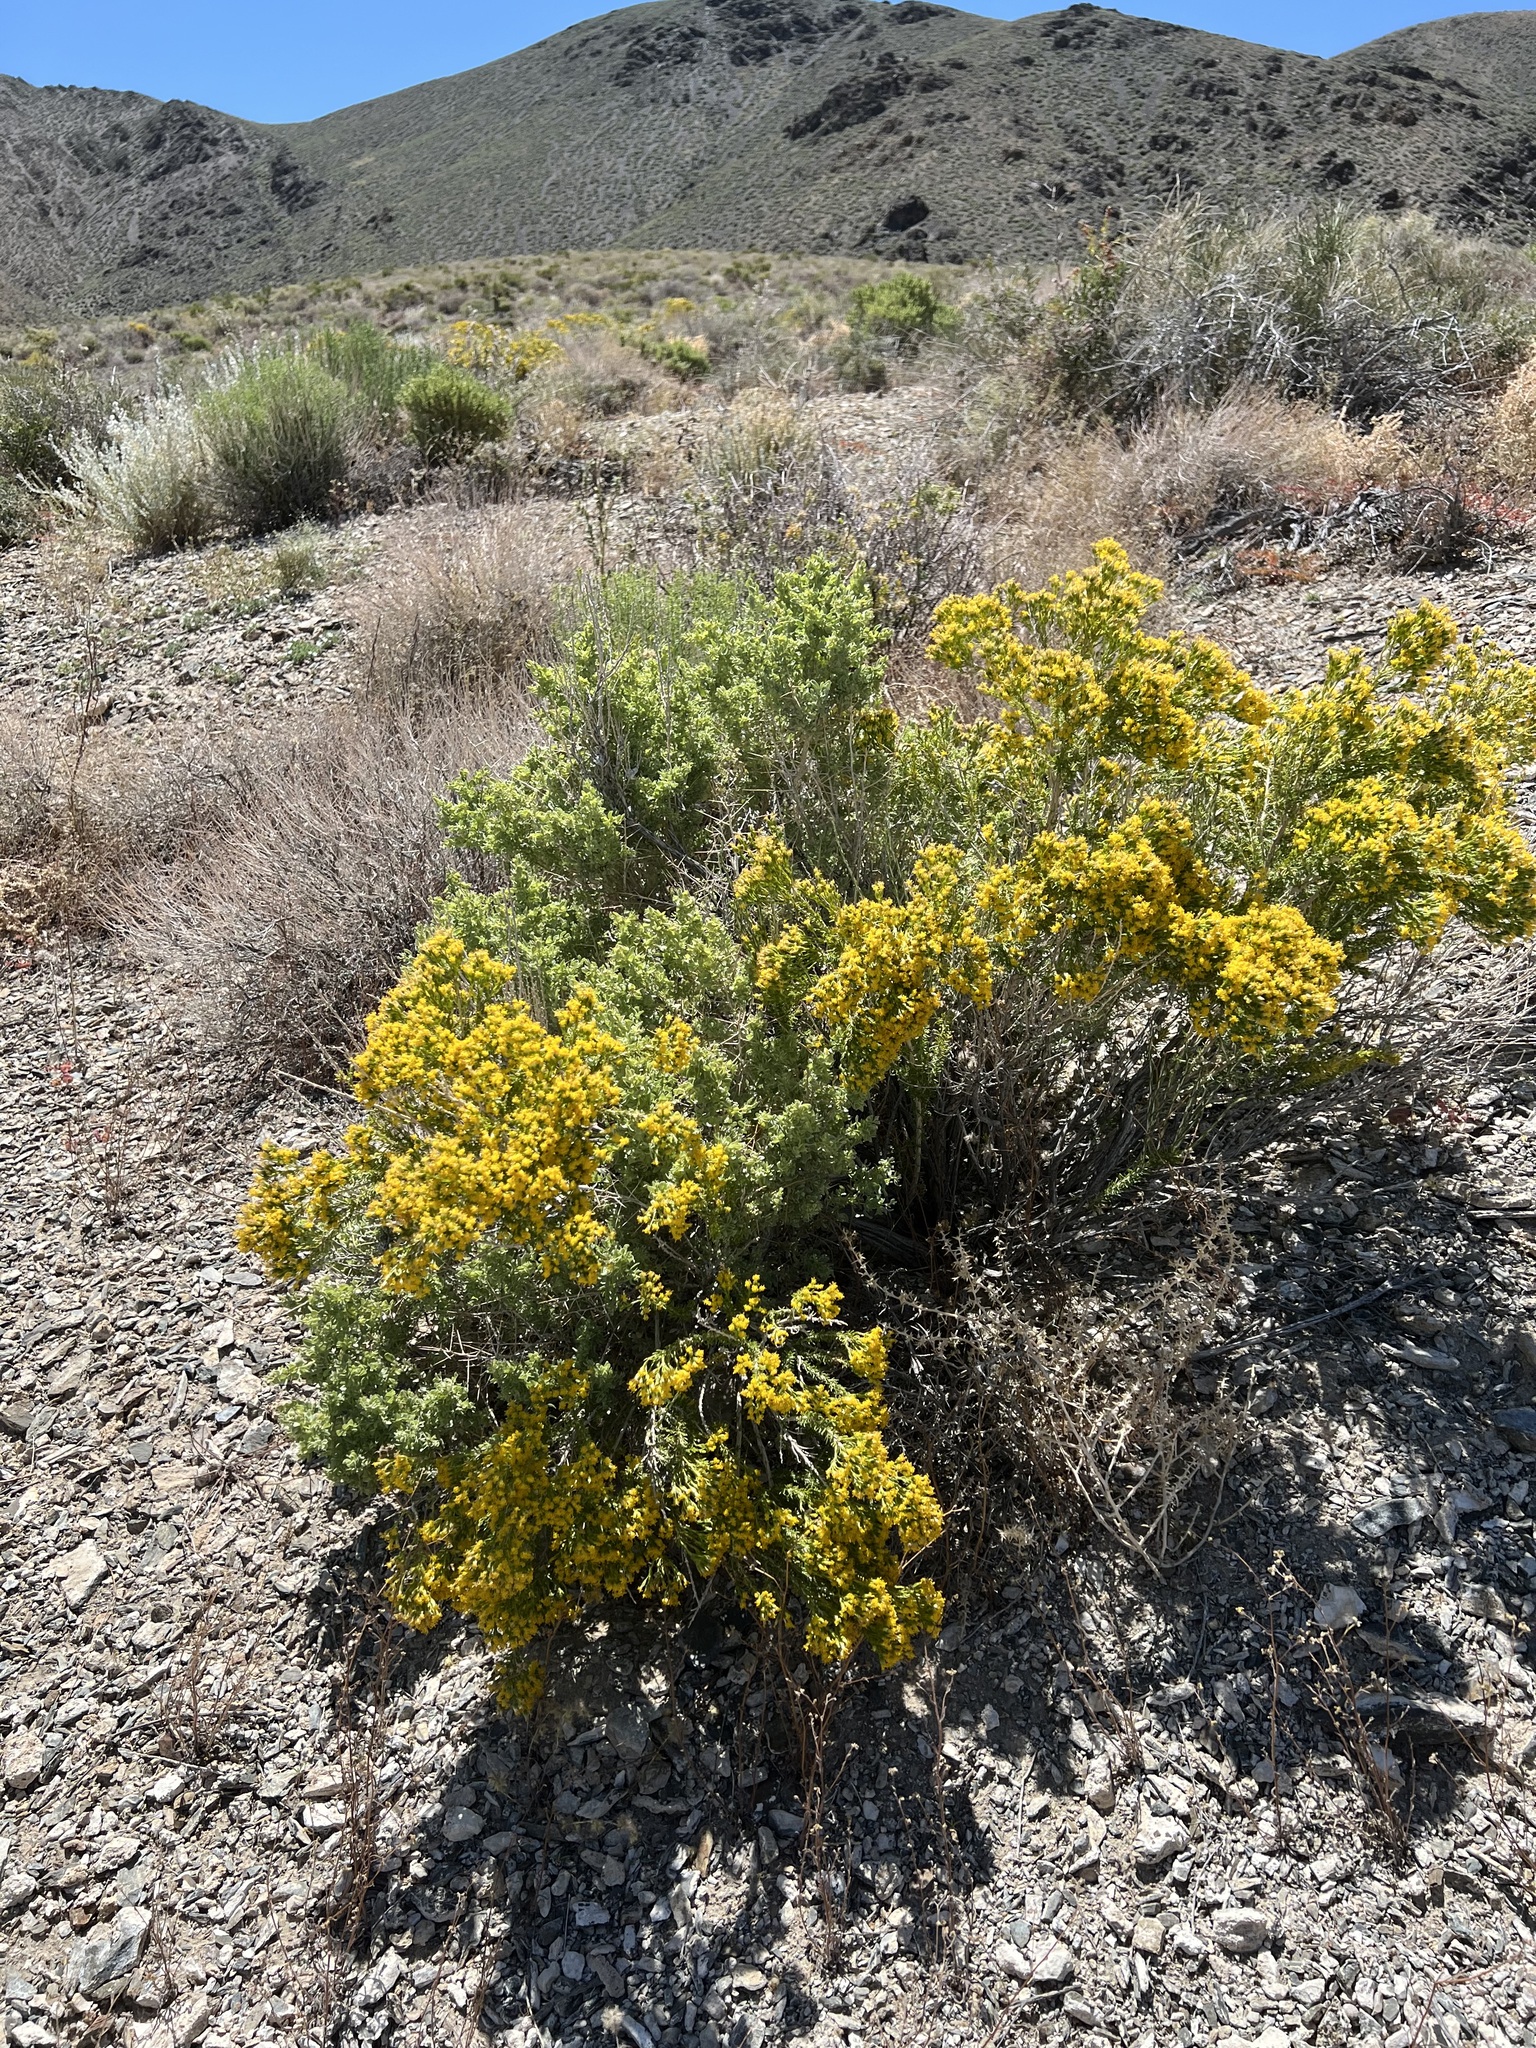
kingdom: Plantae
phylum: Tracheophyta
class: Magnoliopsida
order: Asterales
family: Asteraceae
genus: Tetradymia
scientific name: Tetradymia glabrata
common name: Smooth tetradymia
